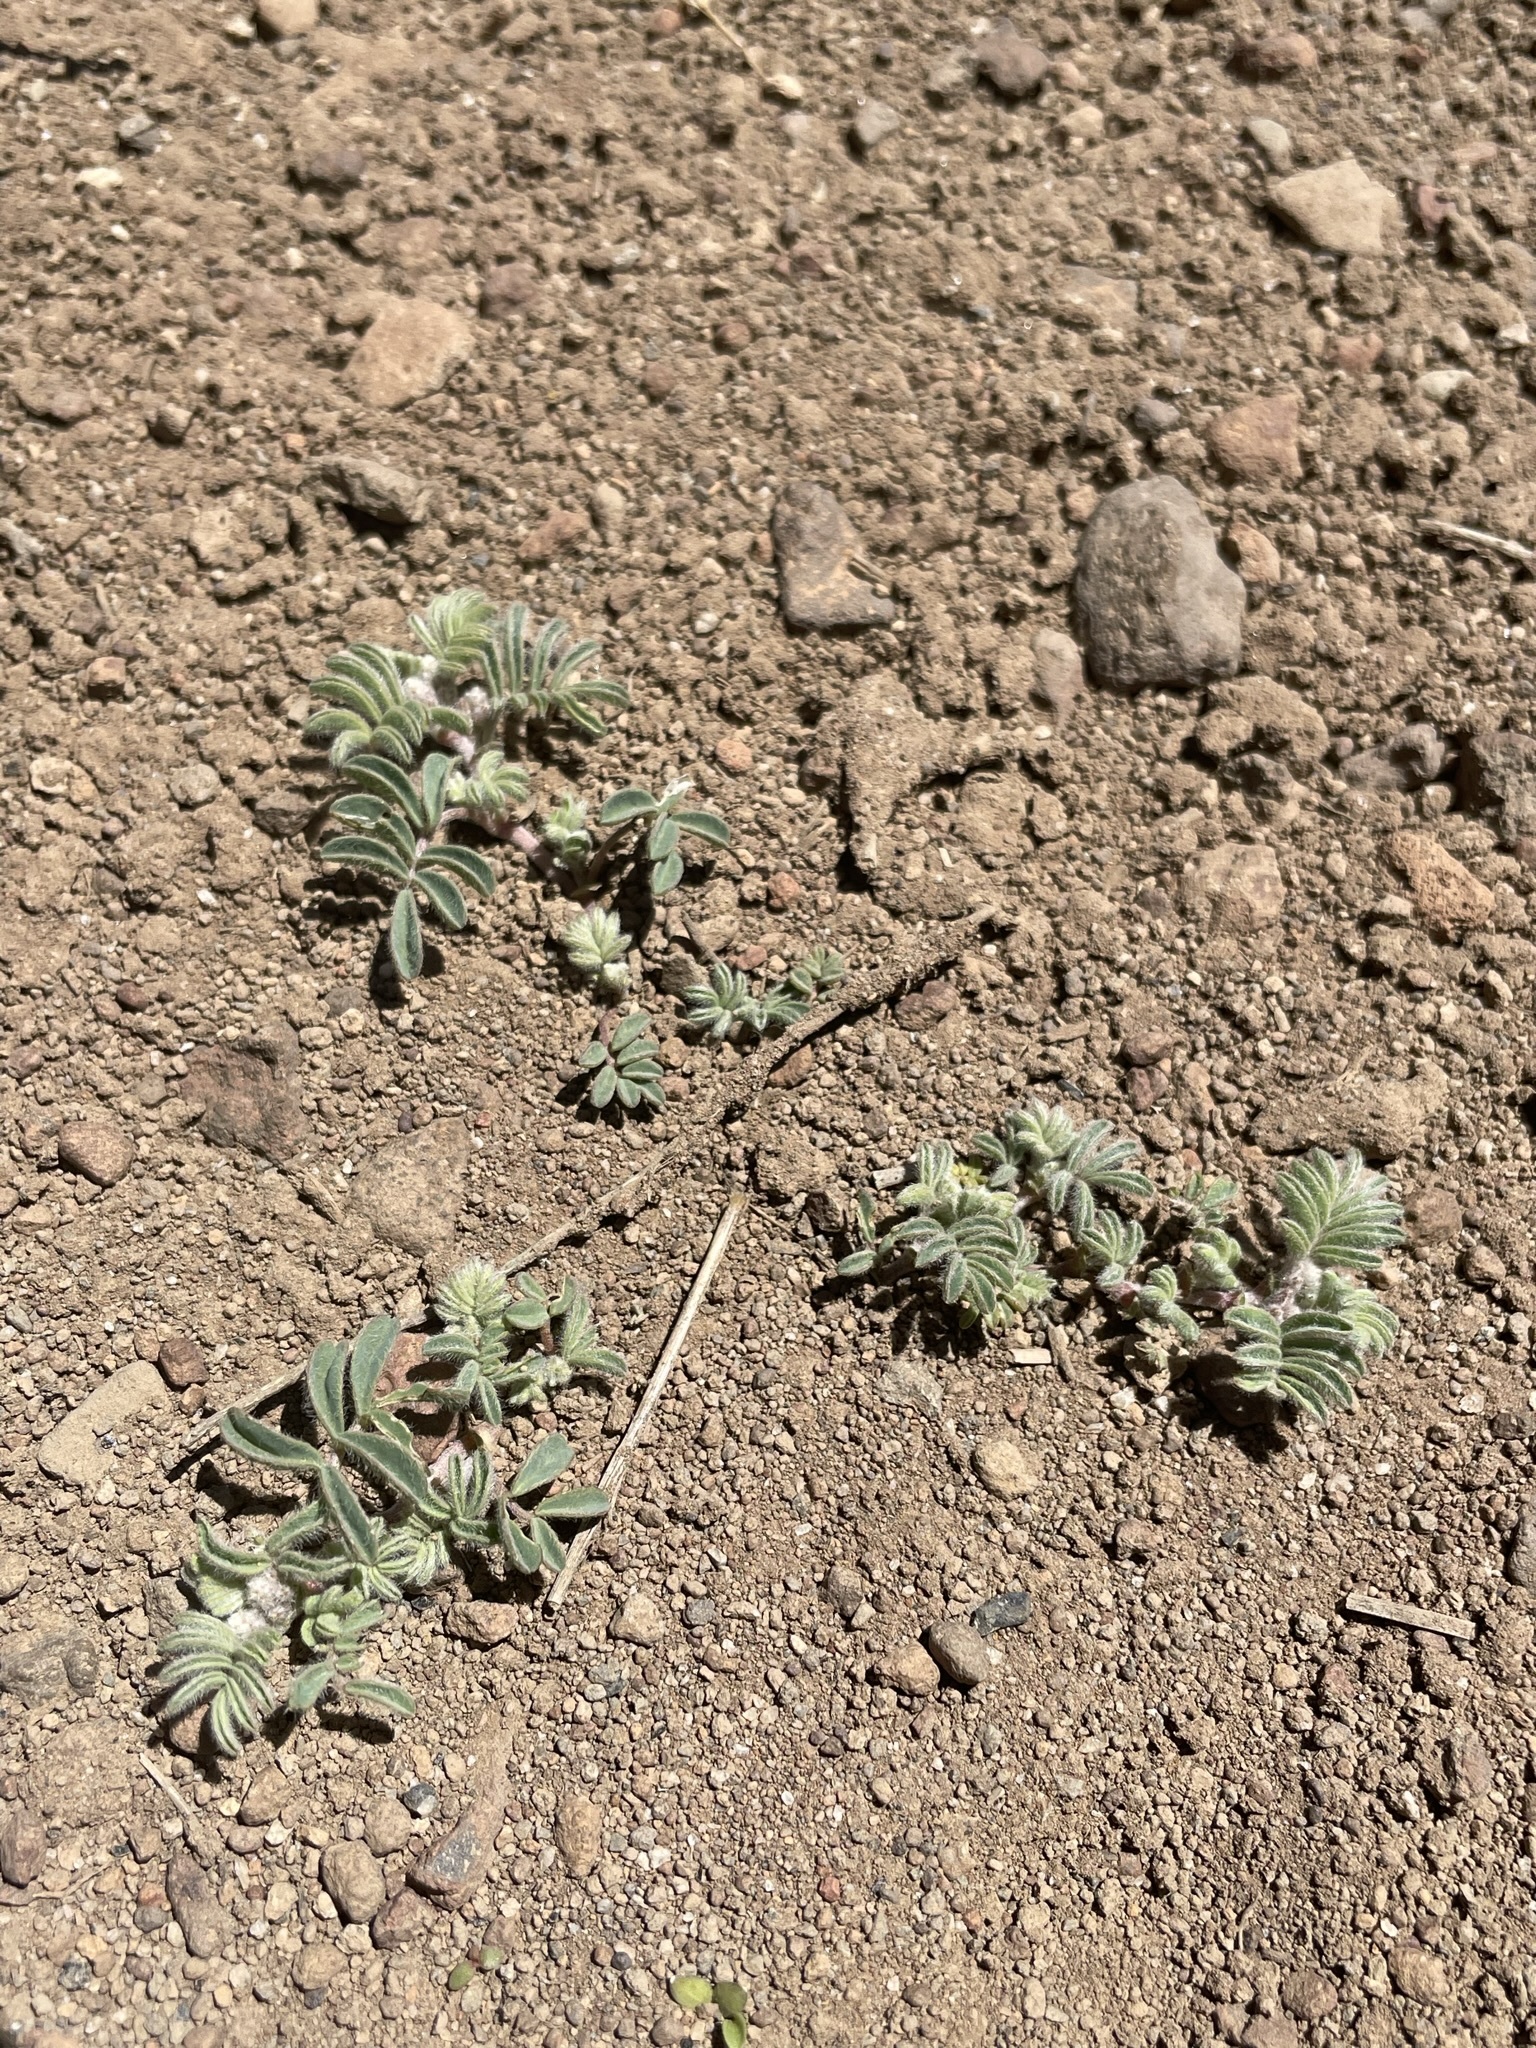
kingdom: Plantae
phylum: Tracheophyta
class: Magnoliopsida
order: Fabales
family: Fabaceae
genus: Astragalus
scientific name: Astragalus pulsiferae
